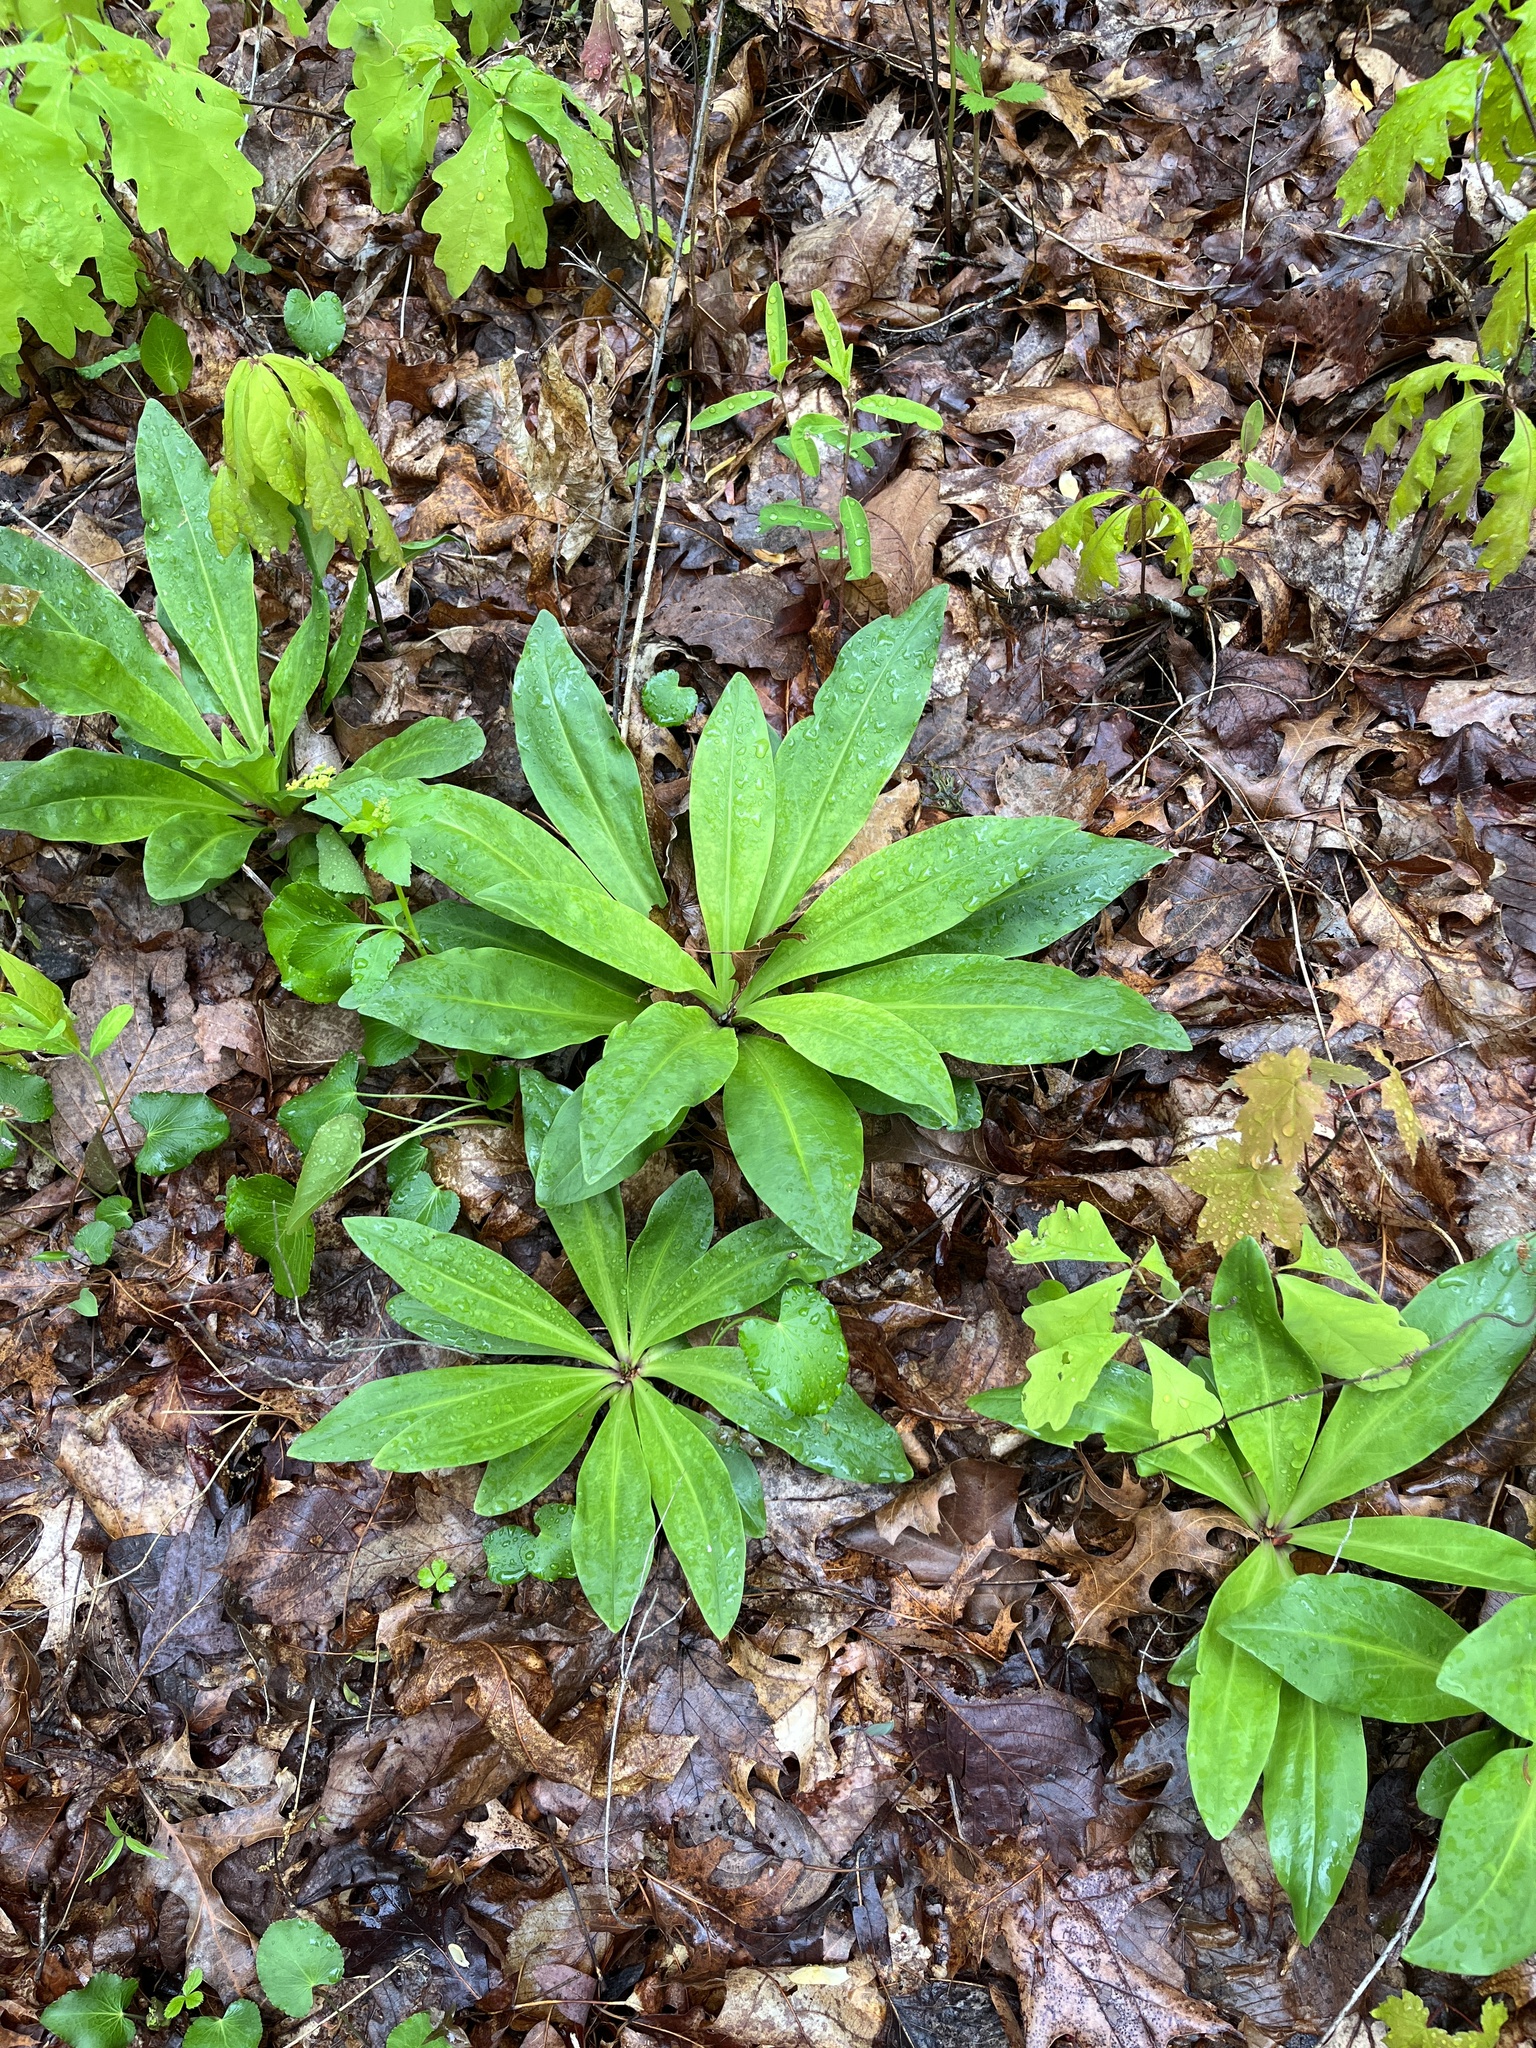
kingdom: Plantae
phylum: Tracheophyta
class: Magnoliopsida
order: Gentianales
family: Gentianaceae
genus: Frasera
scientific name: Frasera caroliniensis
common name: American columbo
